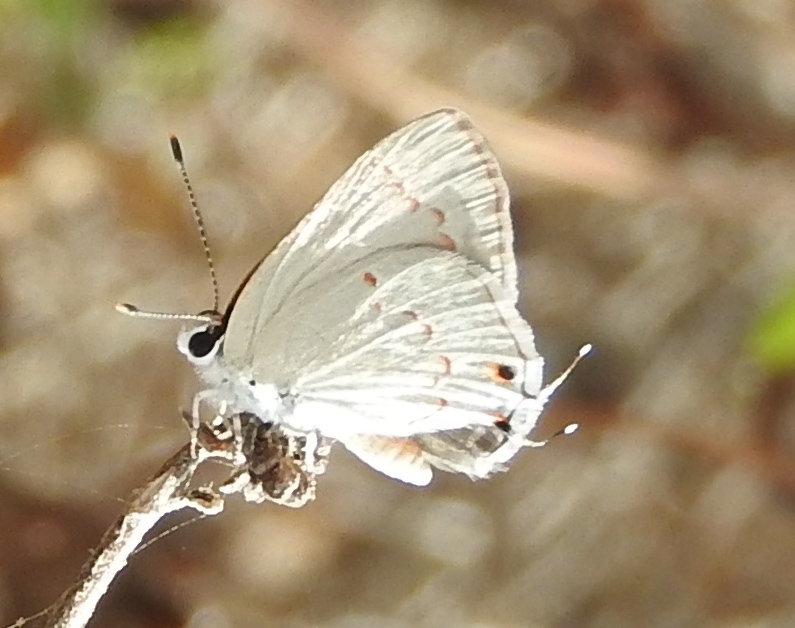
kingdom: Animalia
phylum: Arthropoda
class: Insecta
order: Lepidoptera
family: Lycaenidae
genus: Thecla
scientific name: Thecla rufofusca
